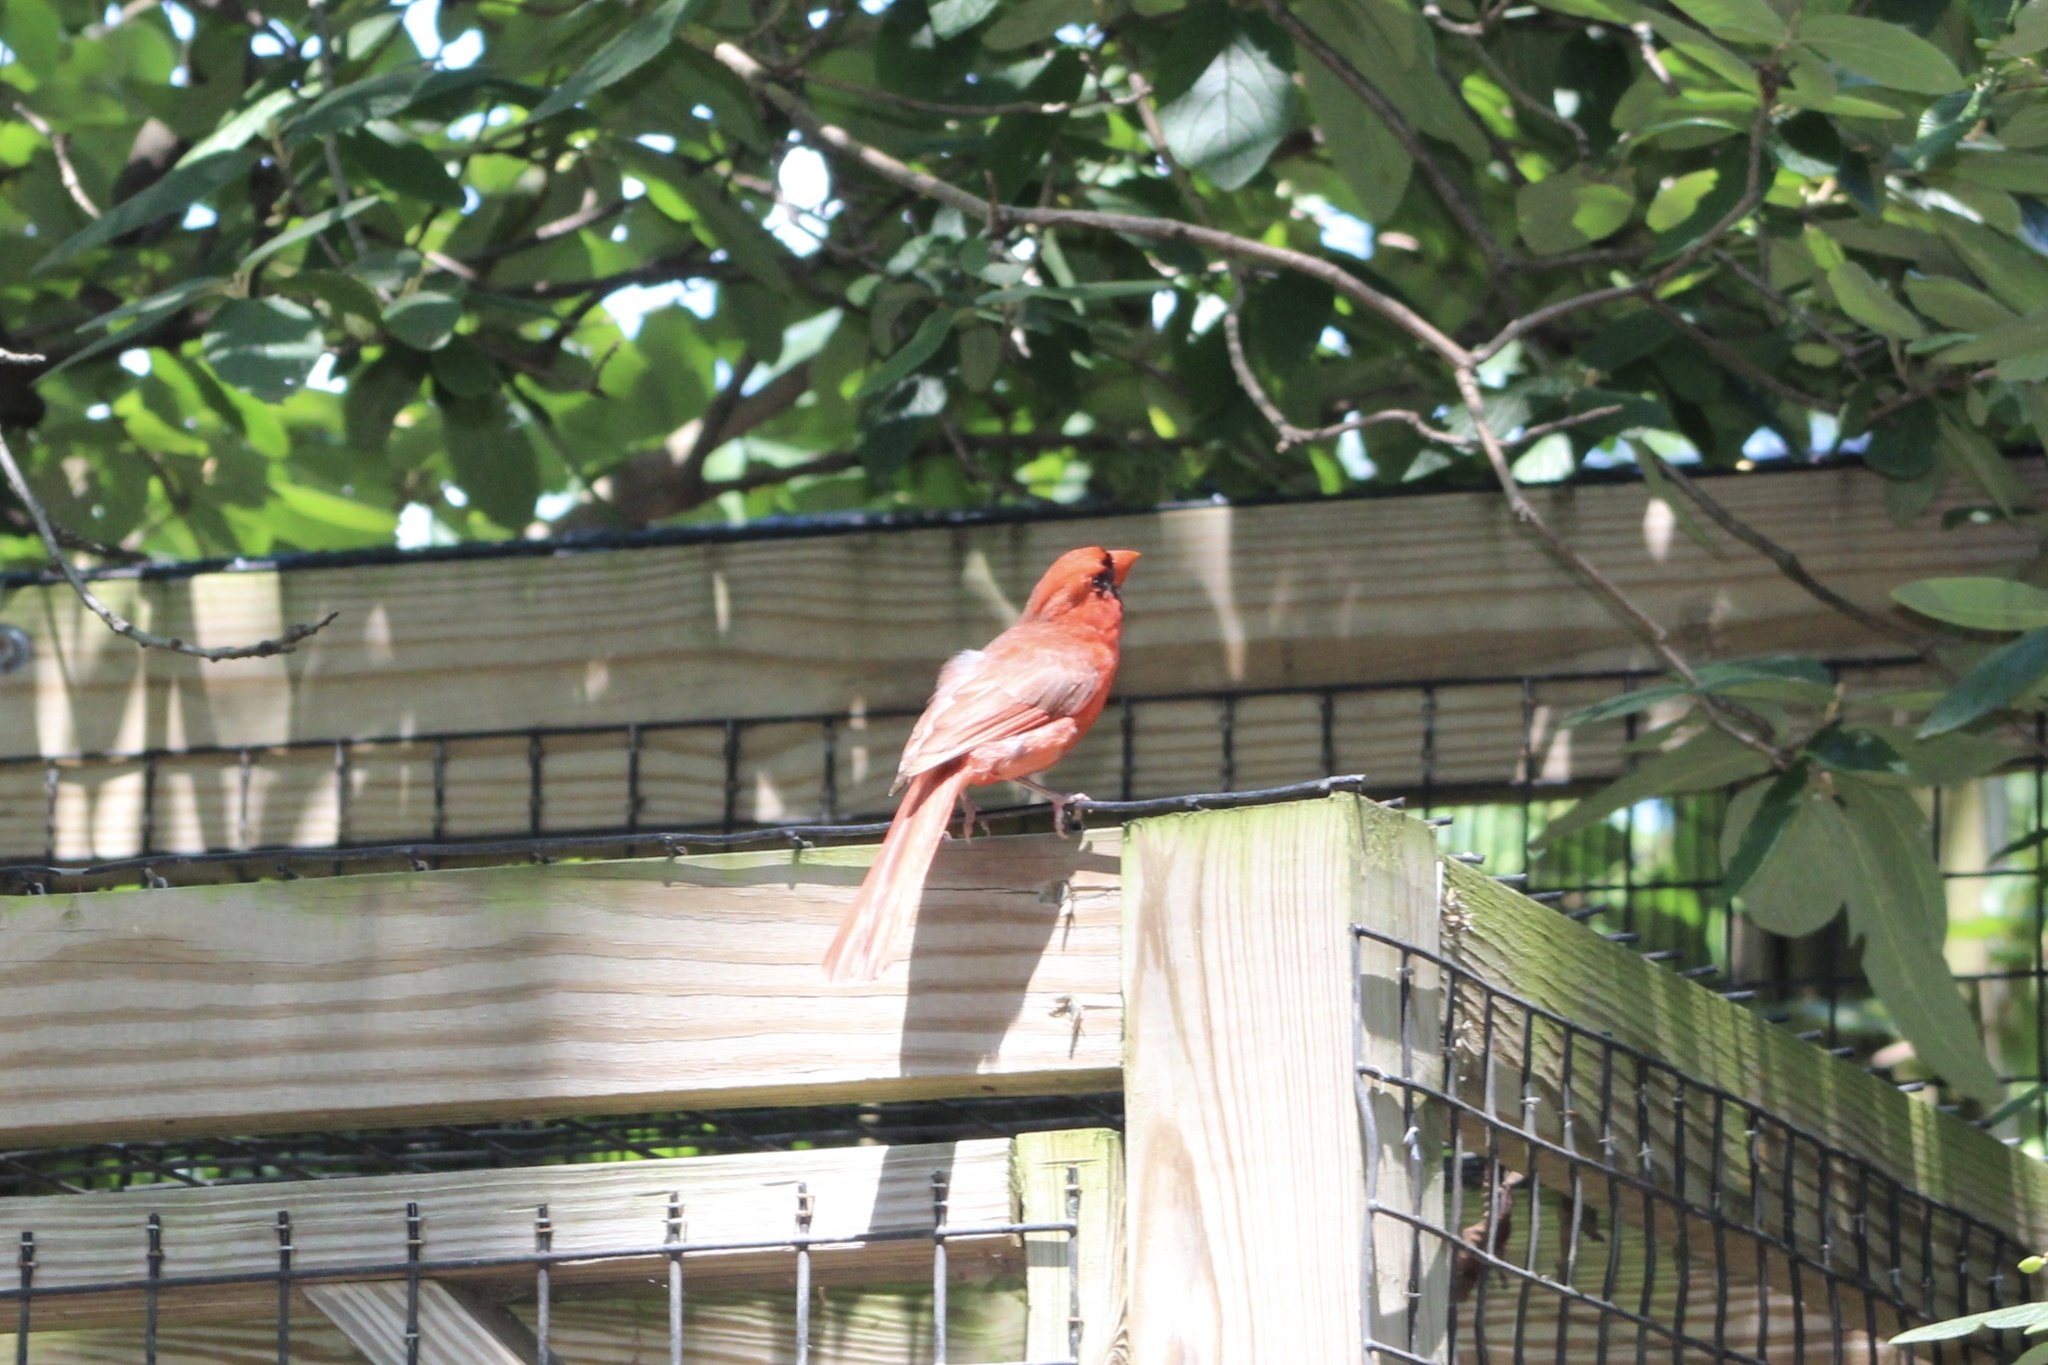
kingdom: Animalia
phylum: Chordata
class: Aves
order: Passeriformes
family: Cardinalidae
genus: Cardinalis
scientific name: Cardinalis cardinalis
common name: Northern cardinal
